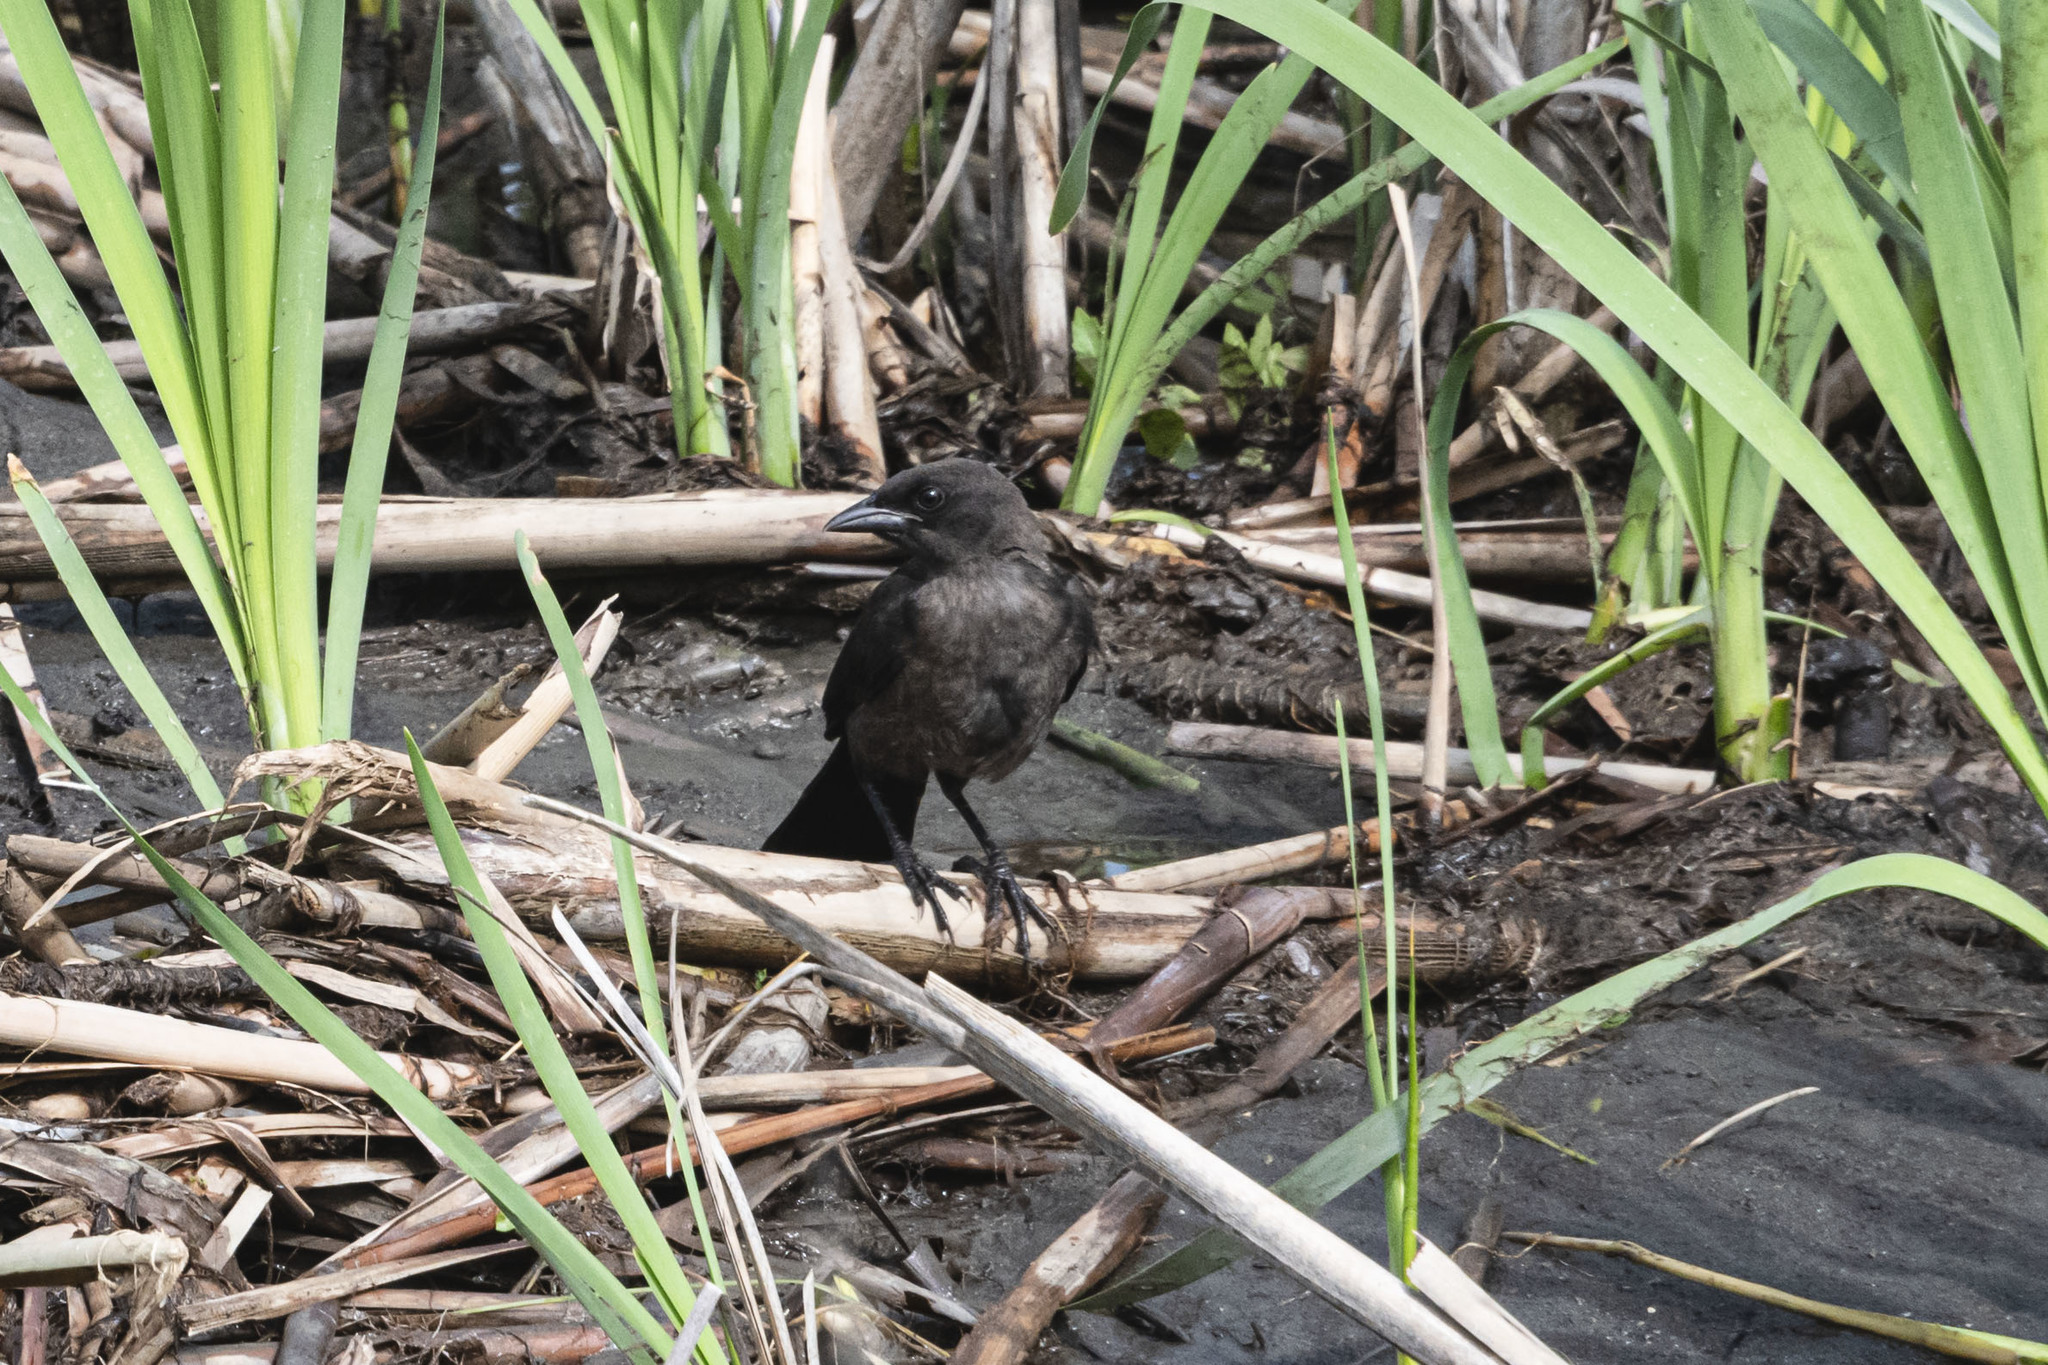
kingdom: Animalia
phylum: Chordata
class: Aves
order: Passeriformes
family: Icteridae
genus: Quiscalus
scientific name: Quiscalus quiscula
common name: Common grackle
